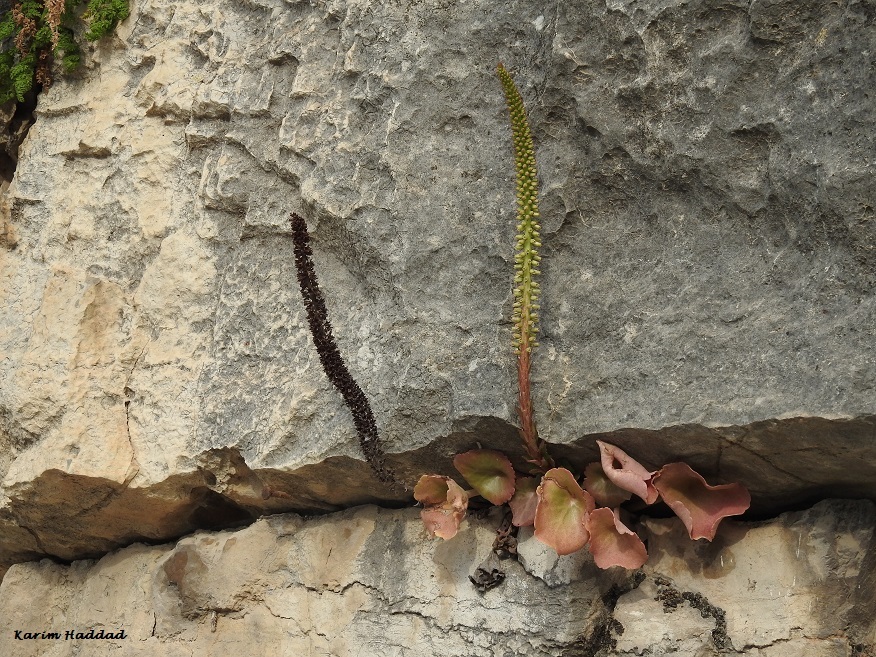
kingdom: Plantae
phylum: Tracheophyta
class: Magnoliopsida
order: Saxifragales
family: Crassulaceae
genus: Umbilicus
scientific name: Umbilicus horizontalis
